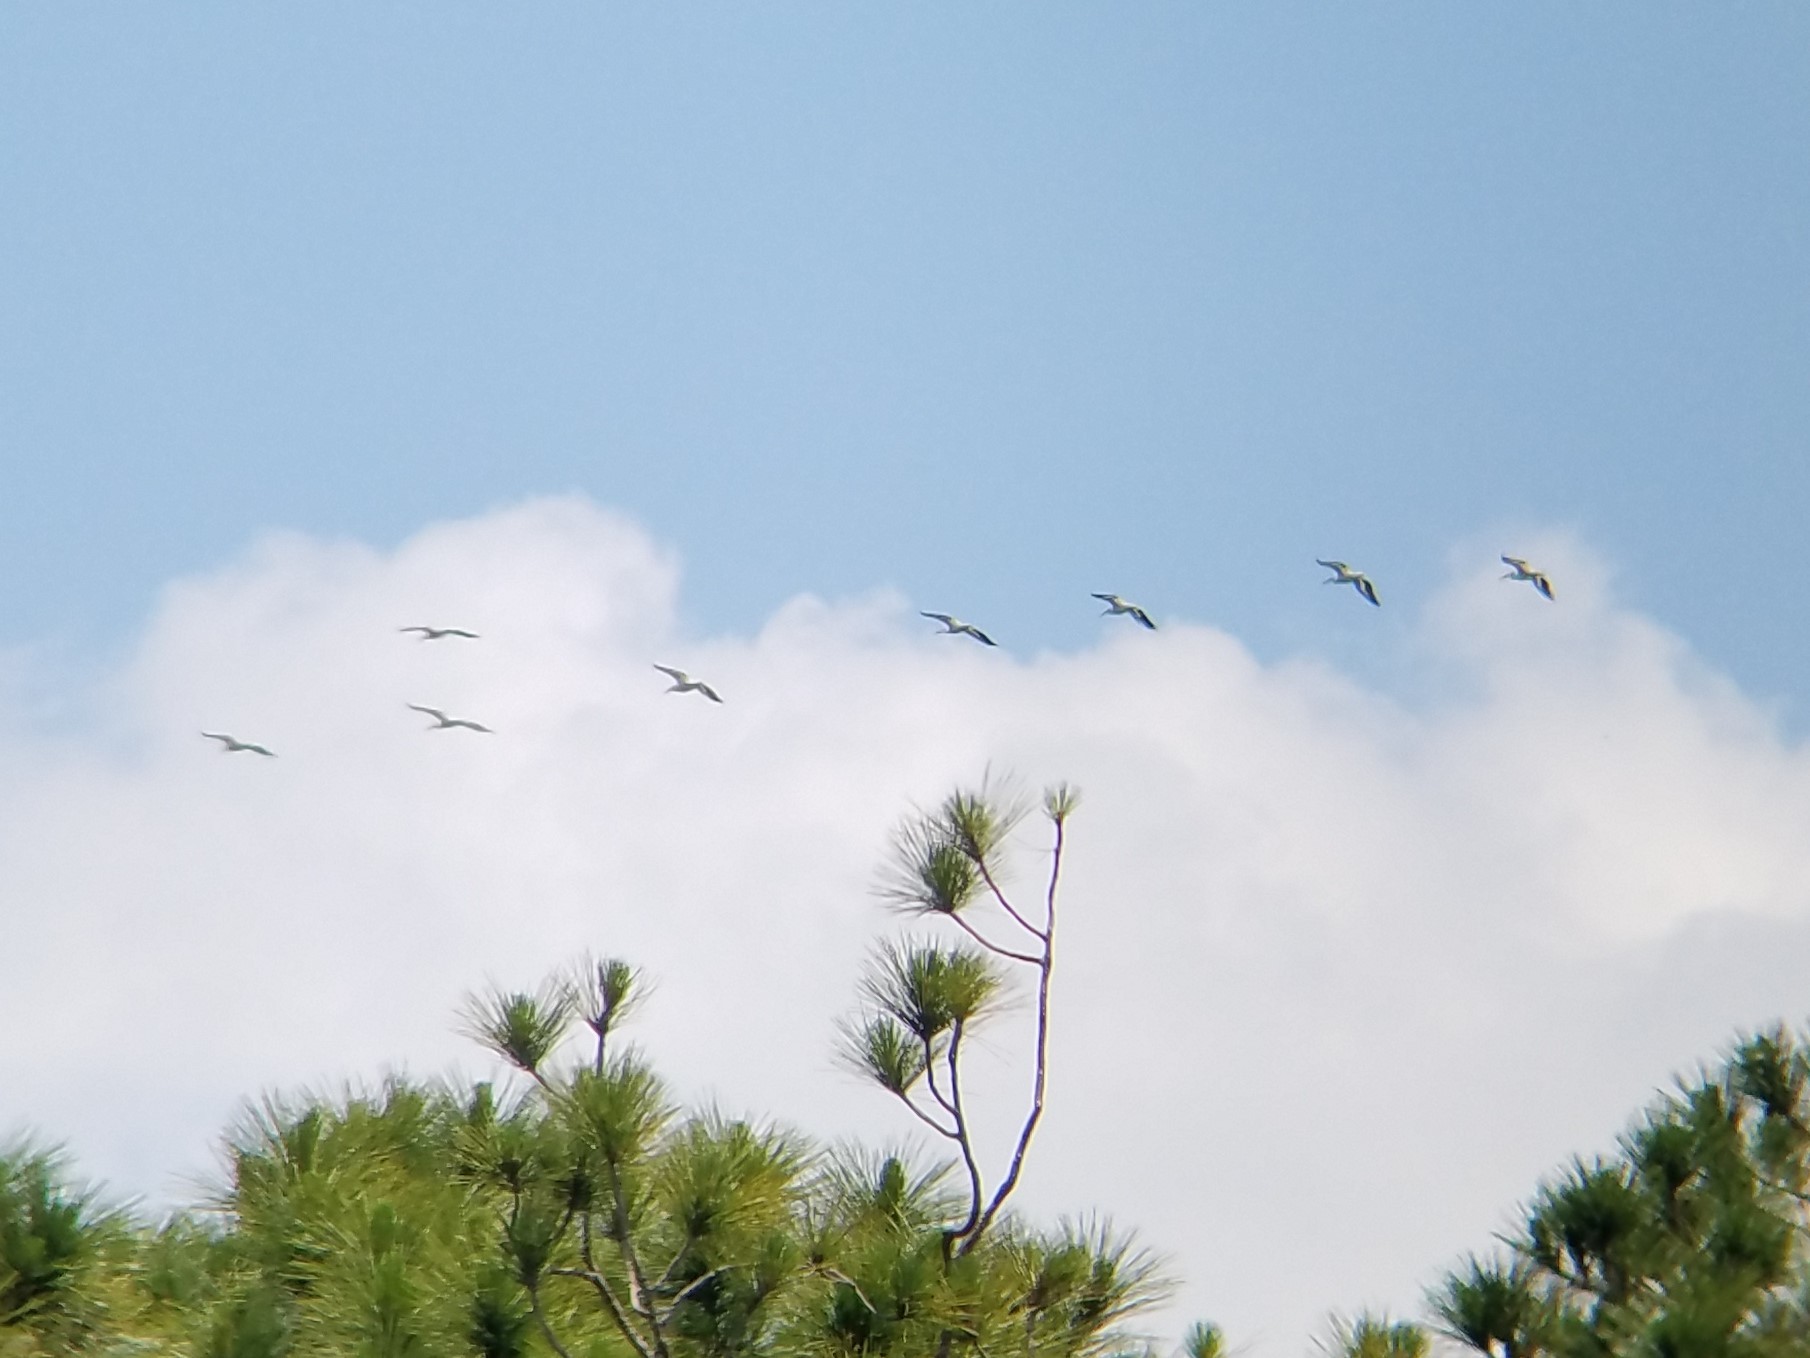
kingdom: Animalia
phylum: Chordata
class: Aves
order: Pelecaniformes
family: Pelecanidae
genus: Pelecanus
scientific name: Pelecanus erythrorhynchos
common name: American white pelican
